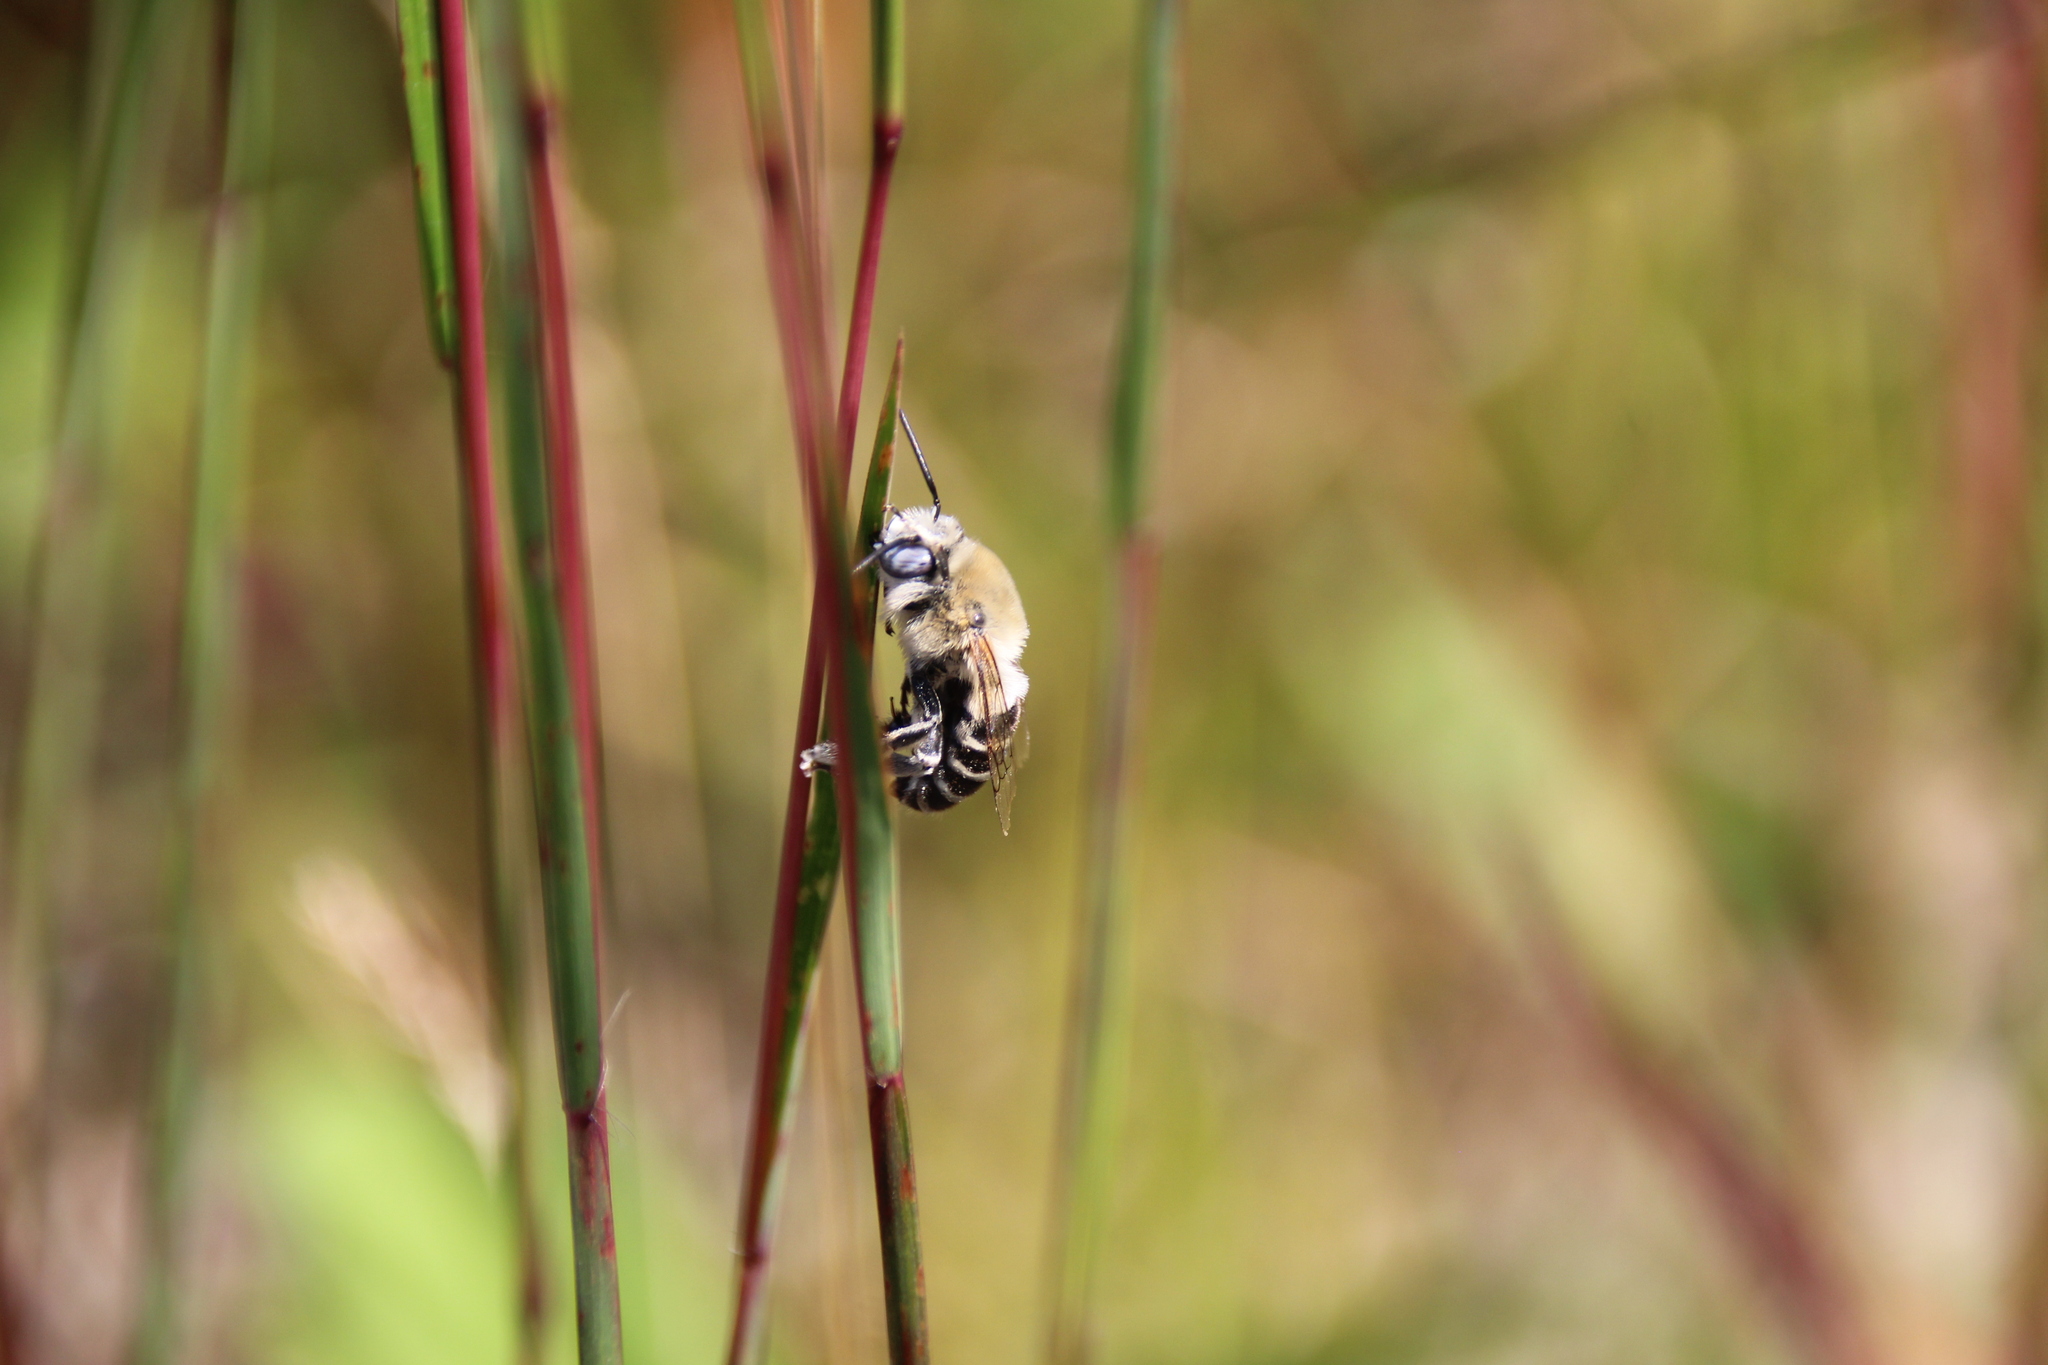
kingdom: Animalia
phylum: Arthropoda
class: Insecta
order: Hymenoptera
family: Apidae
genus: Anthophora
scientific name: Anthophora walshii
